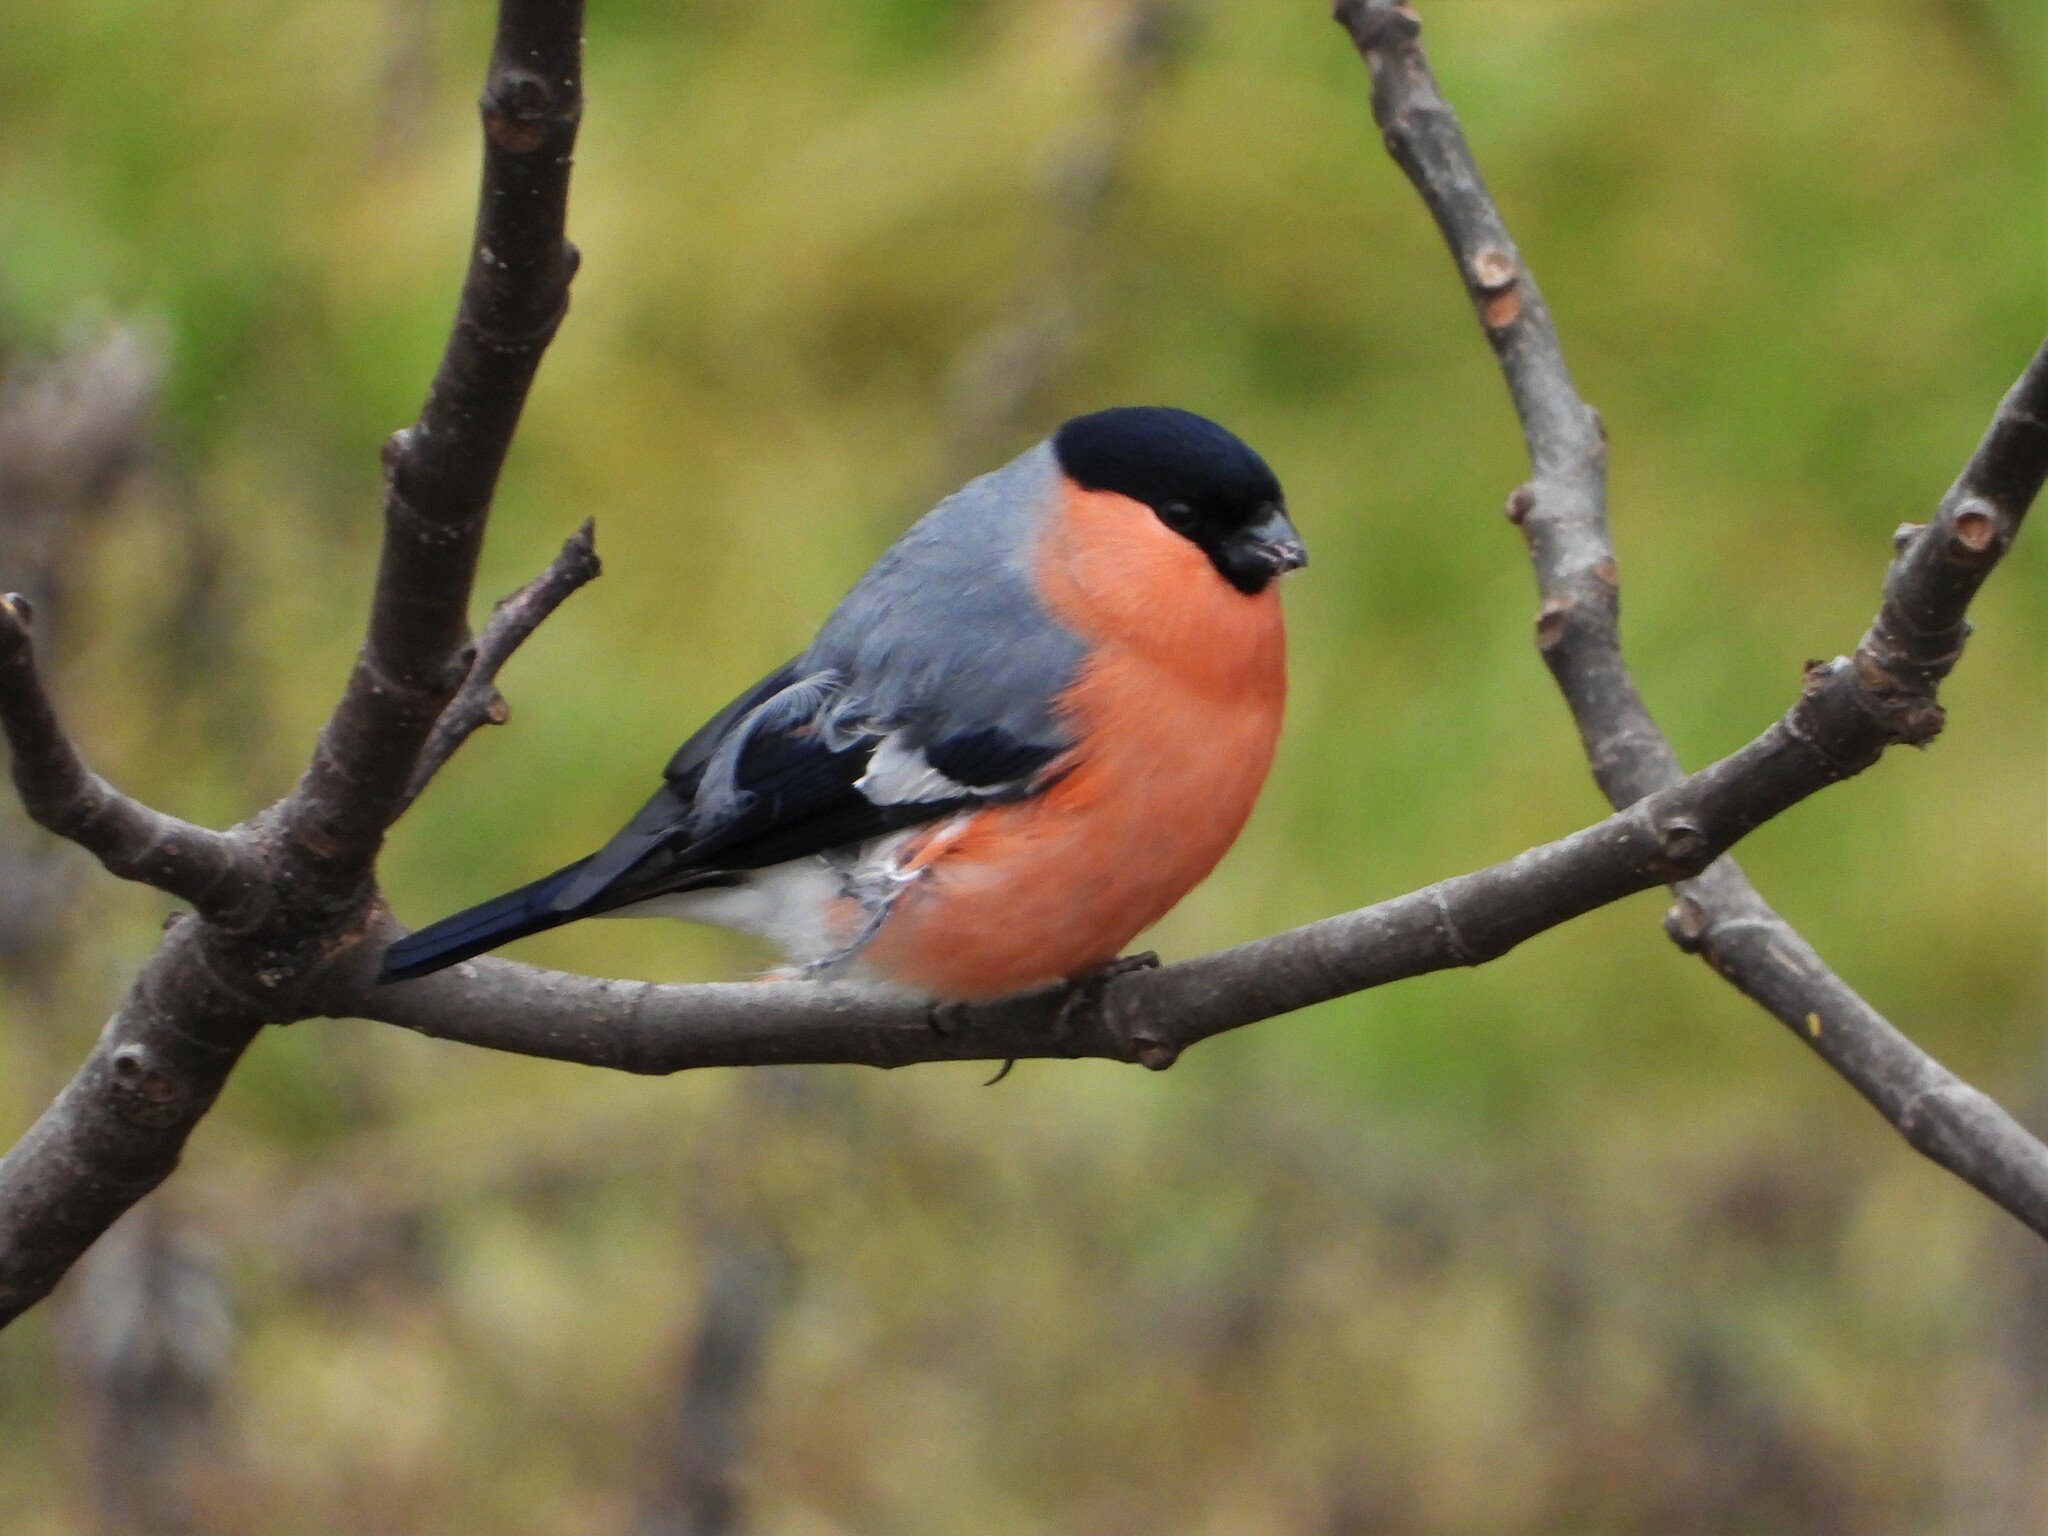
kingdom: Animalia
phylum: Chordata
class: Aves
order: Passeriformes
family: Fringillidae
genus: Pyrrhula
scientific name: Pyrrhula pyrrhula
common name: Eurasian bullfinch
